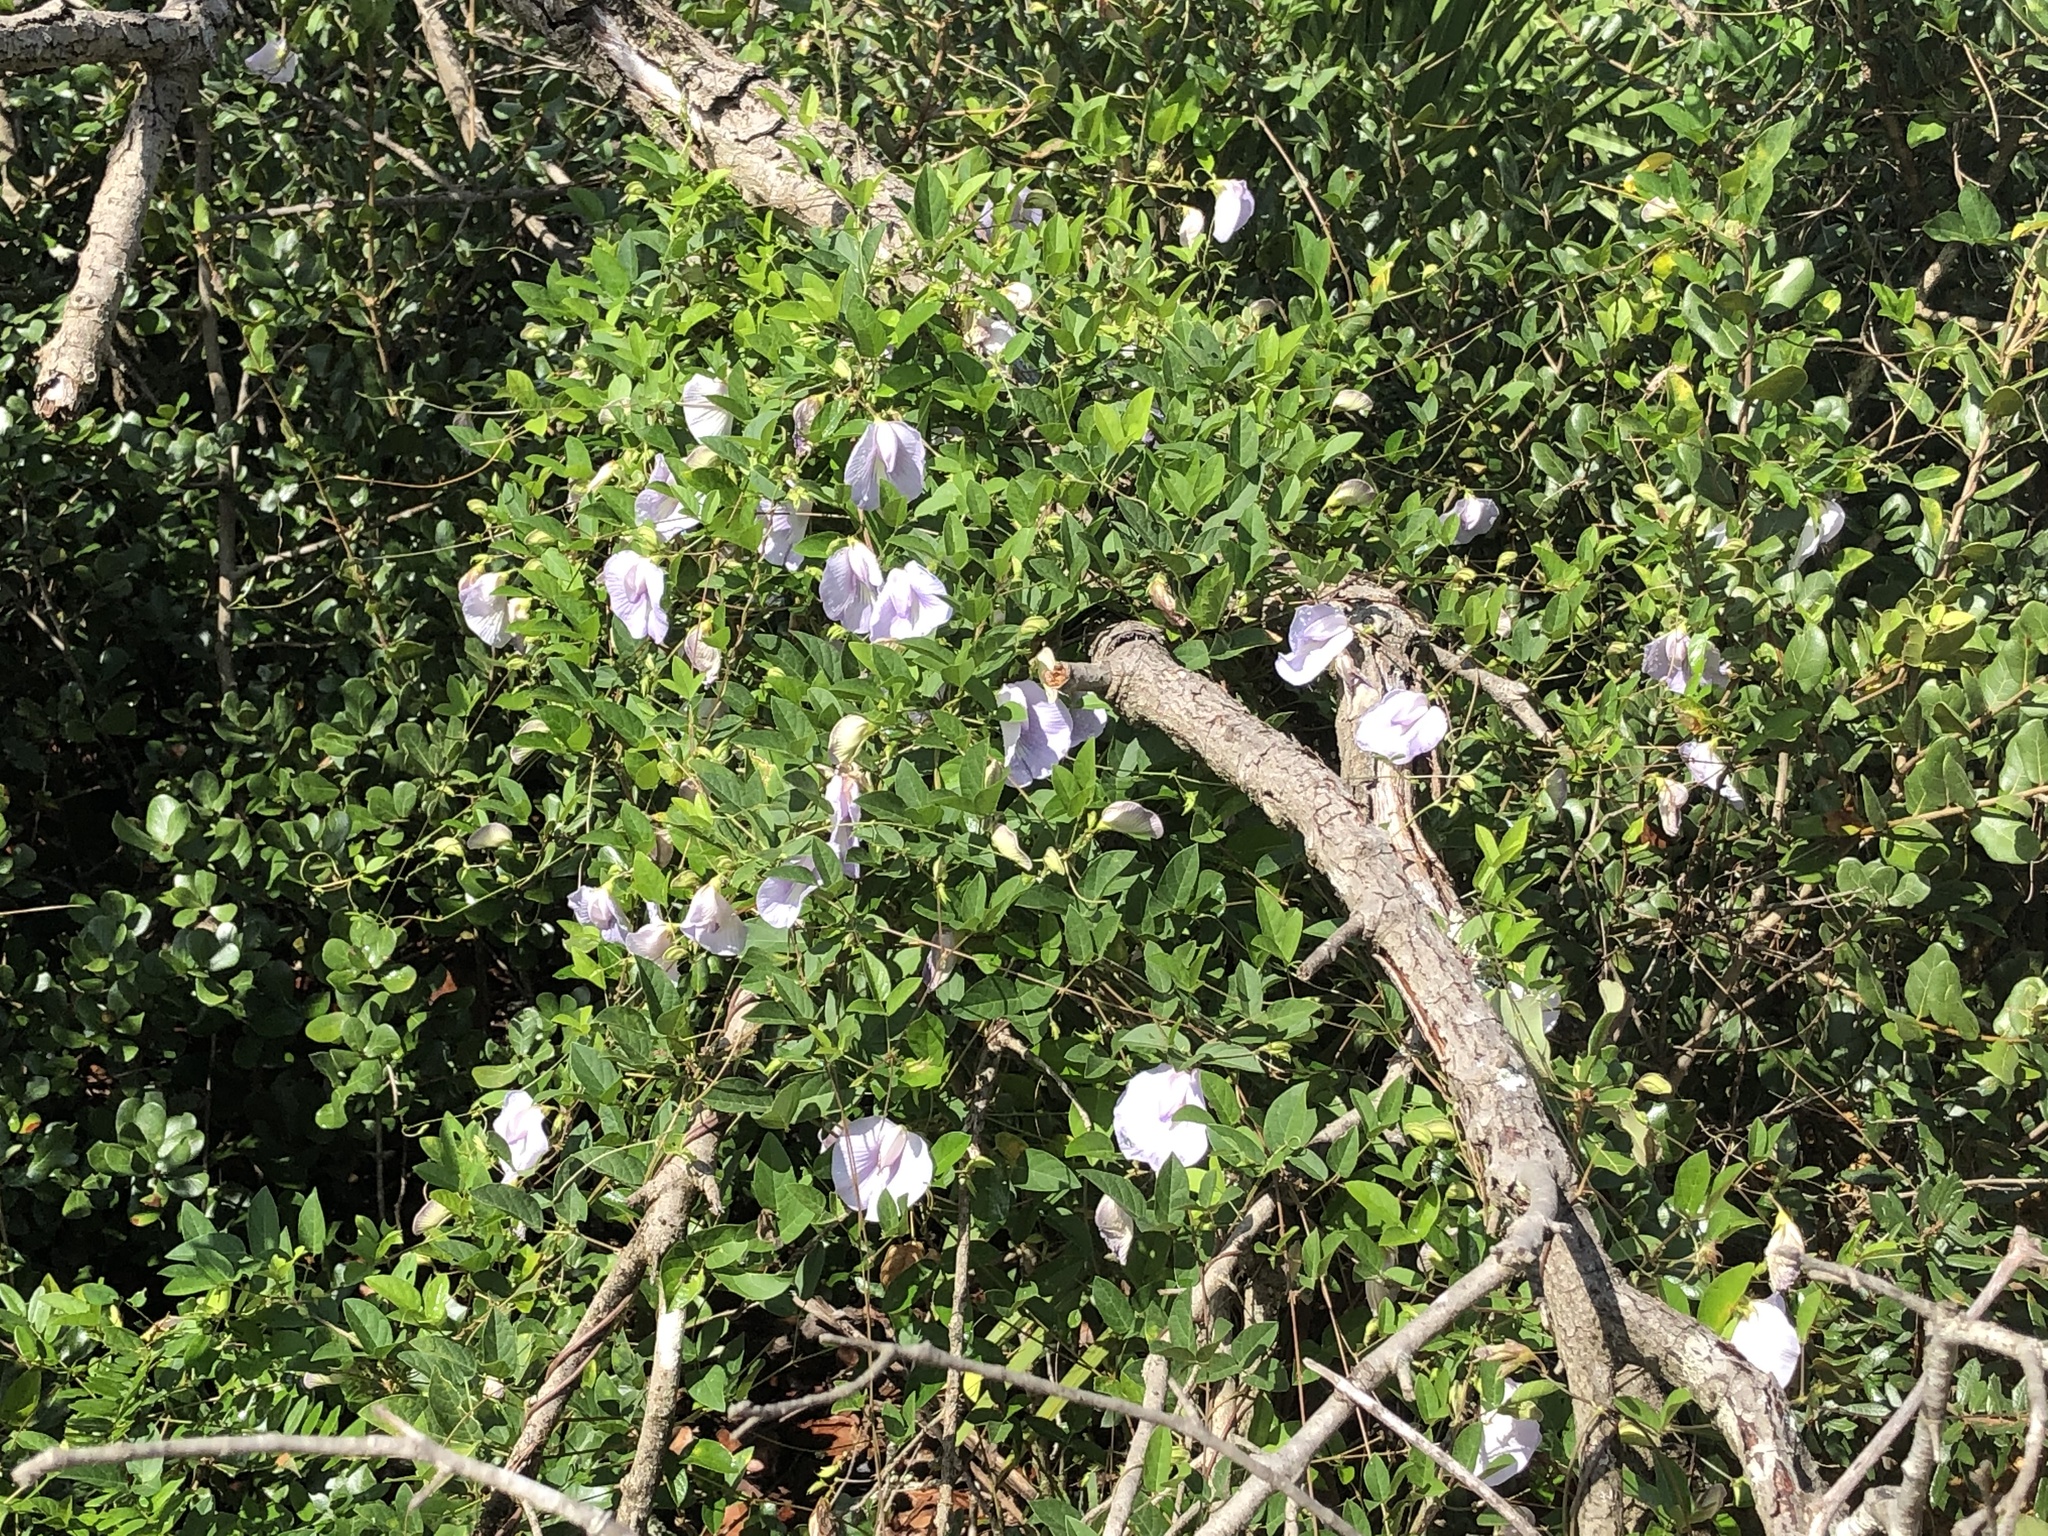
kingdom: Plantae
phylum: Tracheophyta
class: Magnoliopsida
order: Fabales
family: Fabaceae
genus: Centrosema
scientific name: Centrosema virginianum
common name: Butterfly-pea
